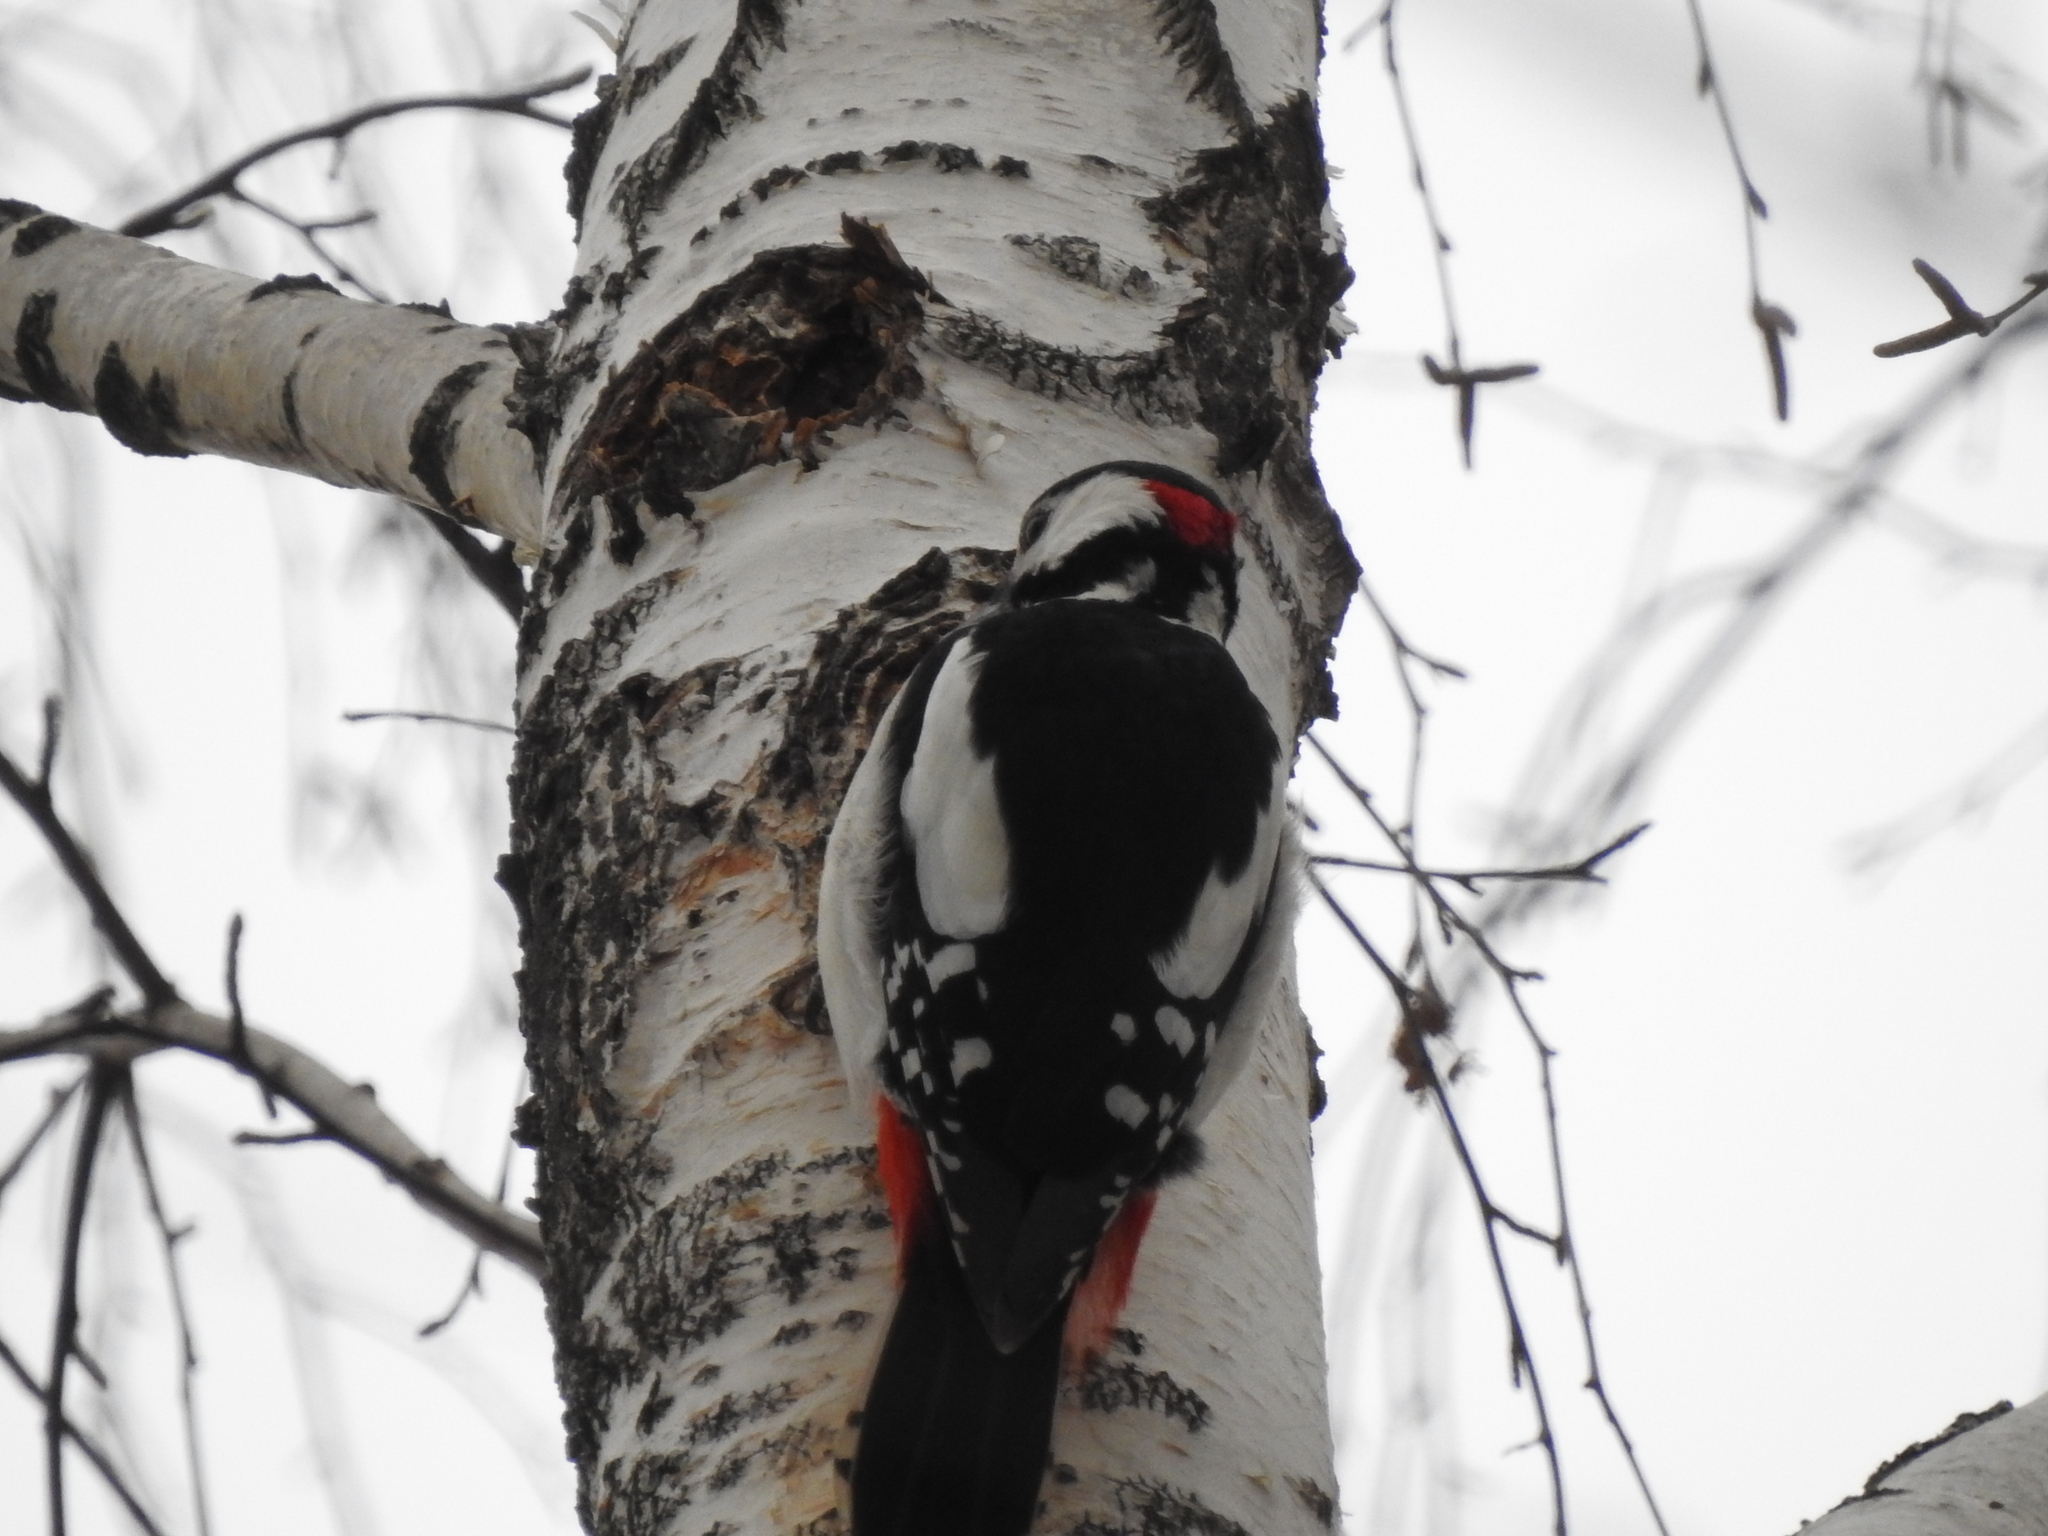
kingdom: Animalia
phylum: Chordata
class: Aves
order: Piciformes
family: Picidae
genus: Dendrocopos
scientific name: Dendrocopos major
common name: Great spotted woodpecker
